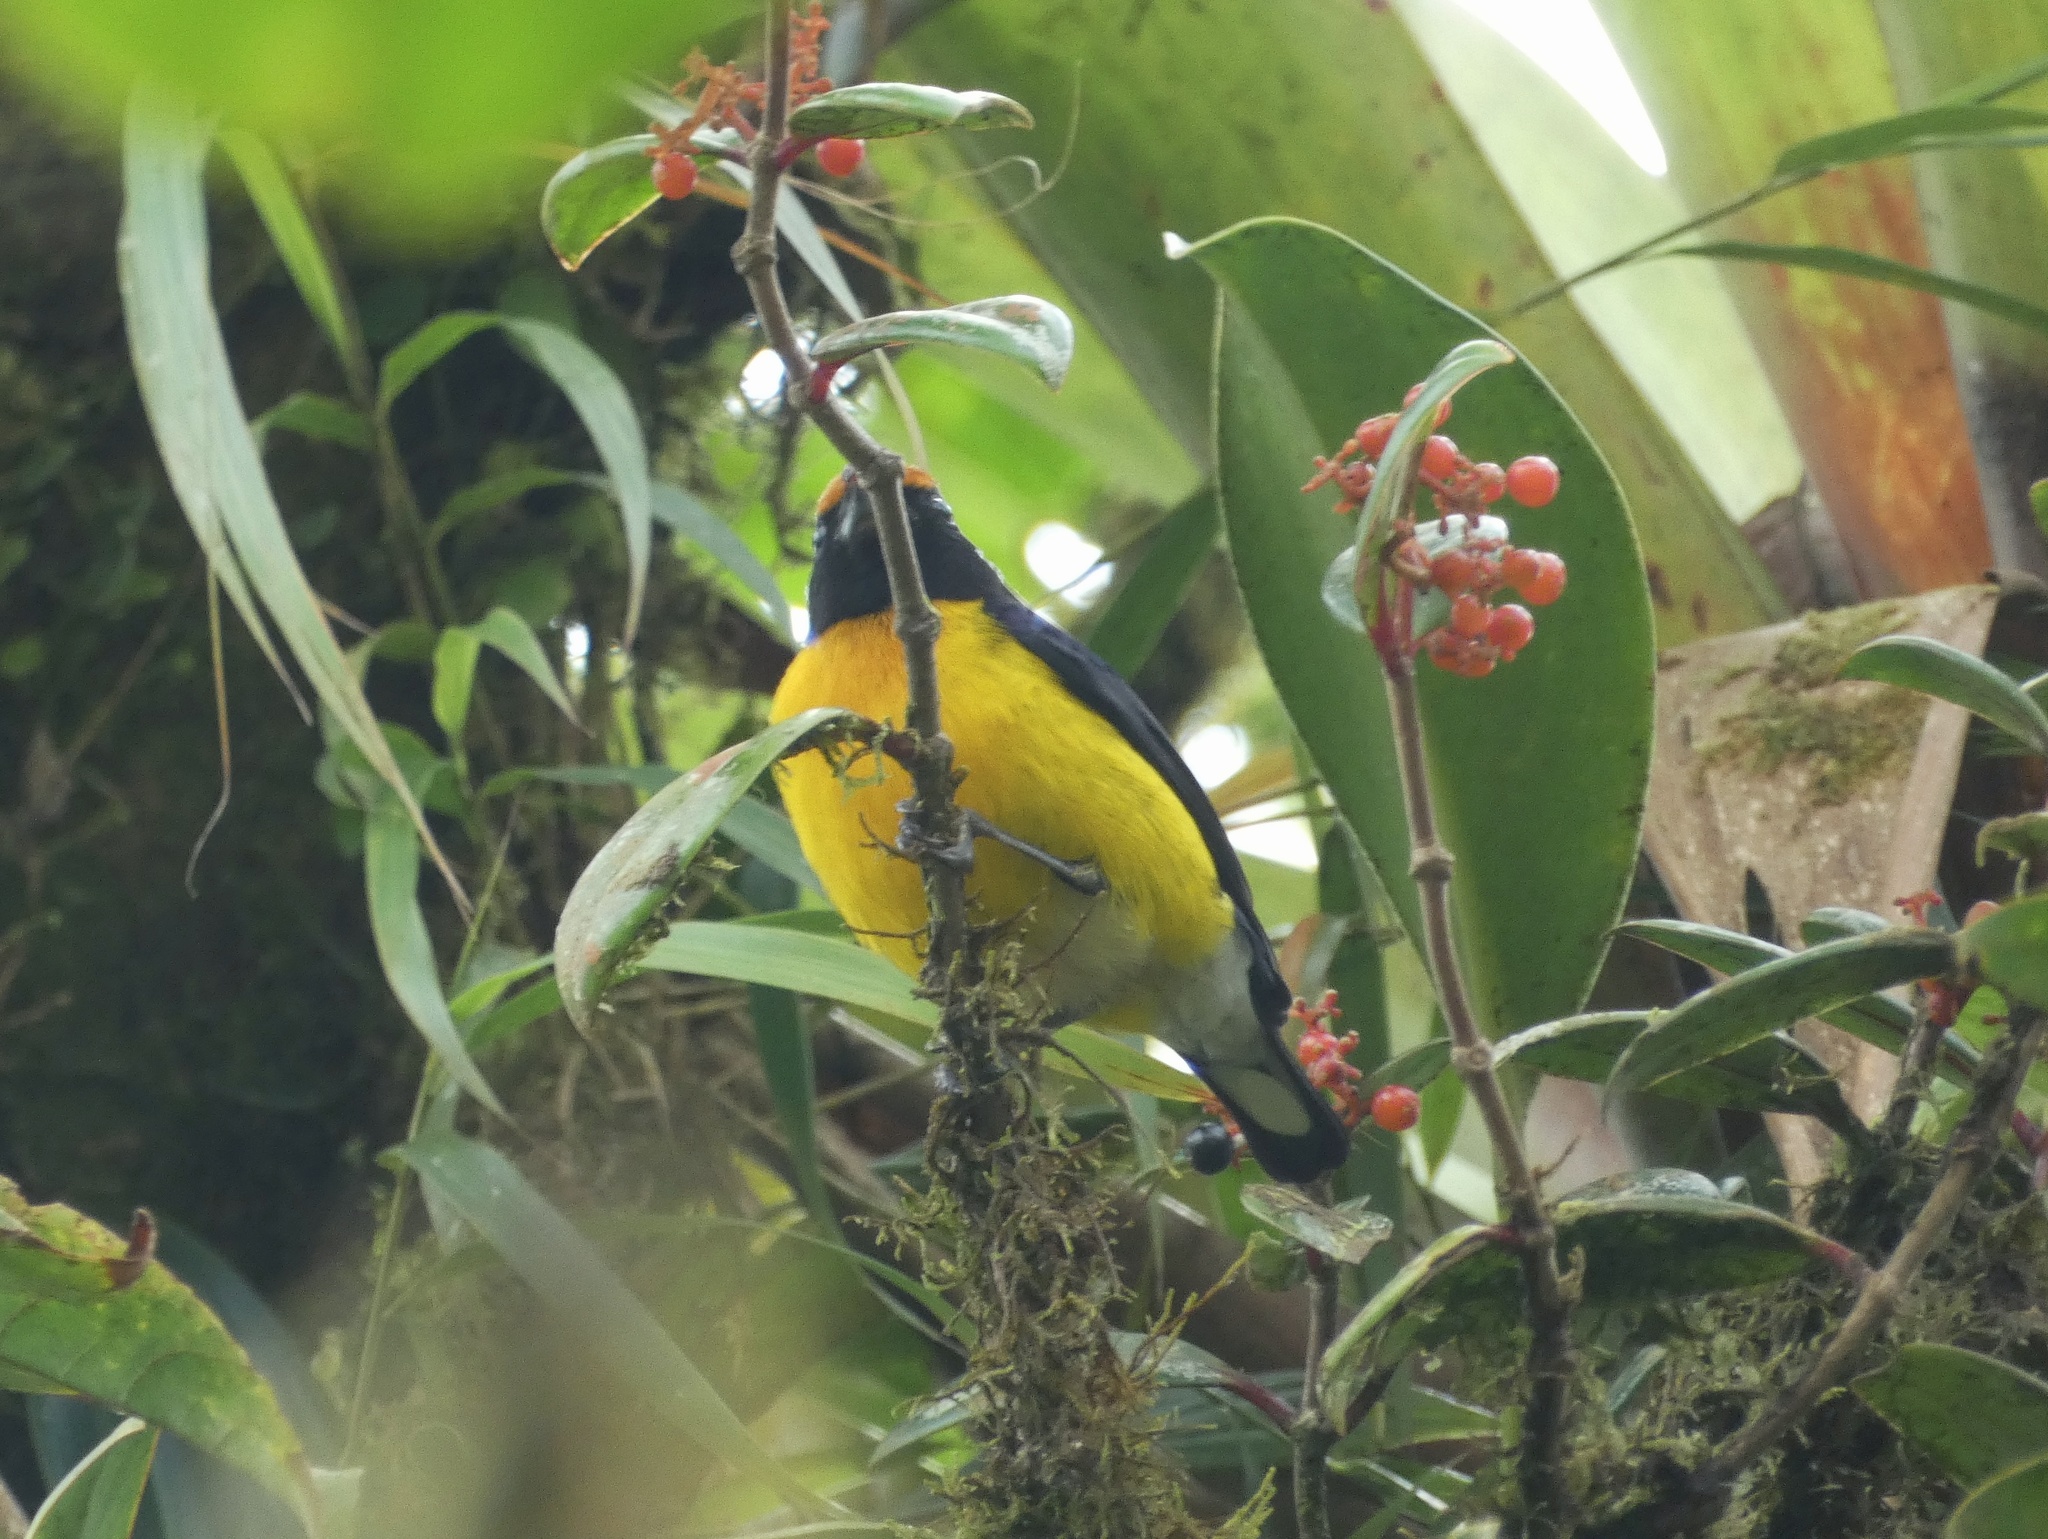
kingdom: Animalia
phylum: Chordata
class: Aves
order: Passeriformes
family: Fringillidae
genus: Euphonia
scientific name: Euphonia anneae
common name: Tawny-capped euphonia
